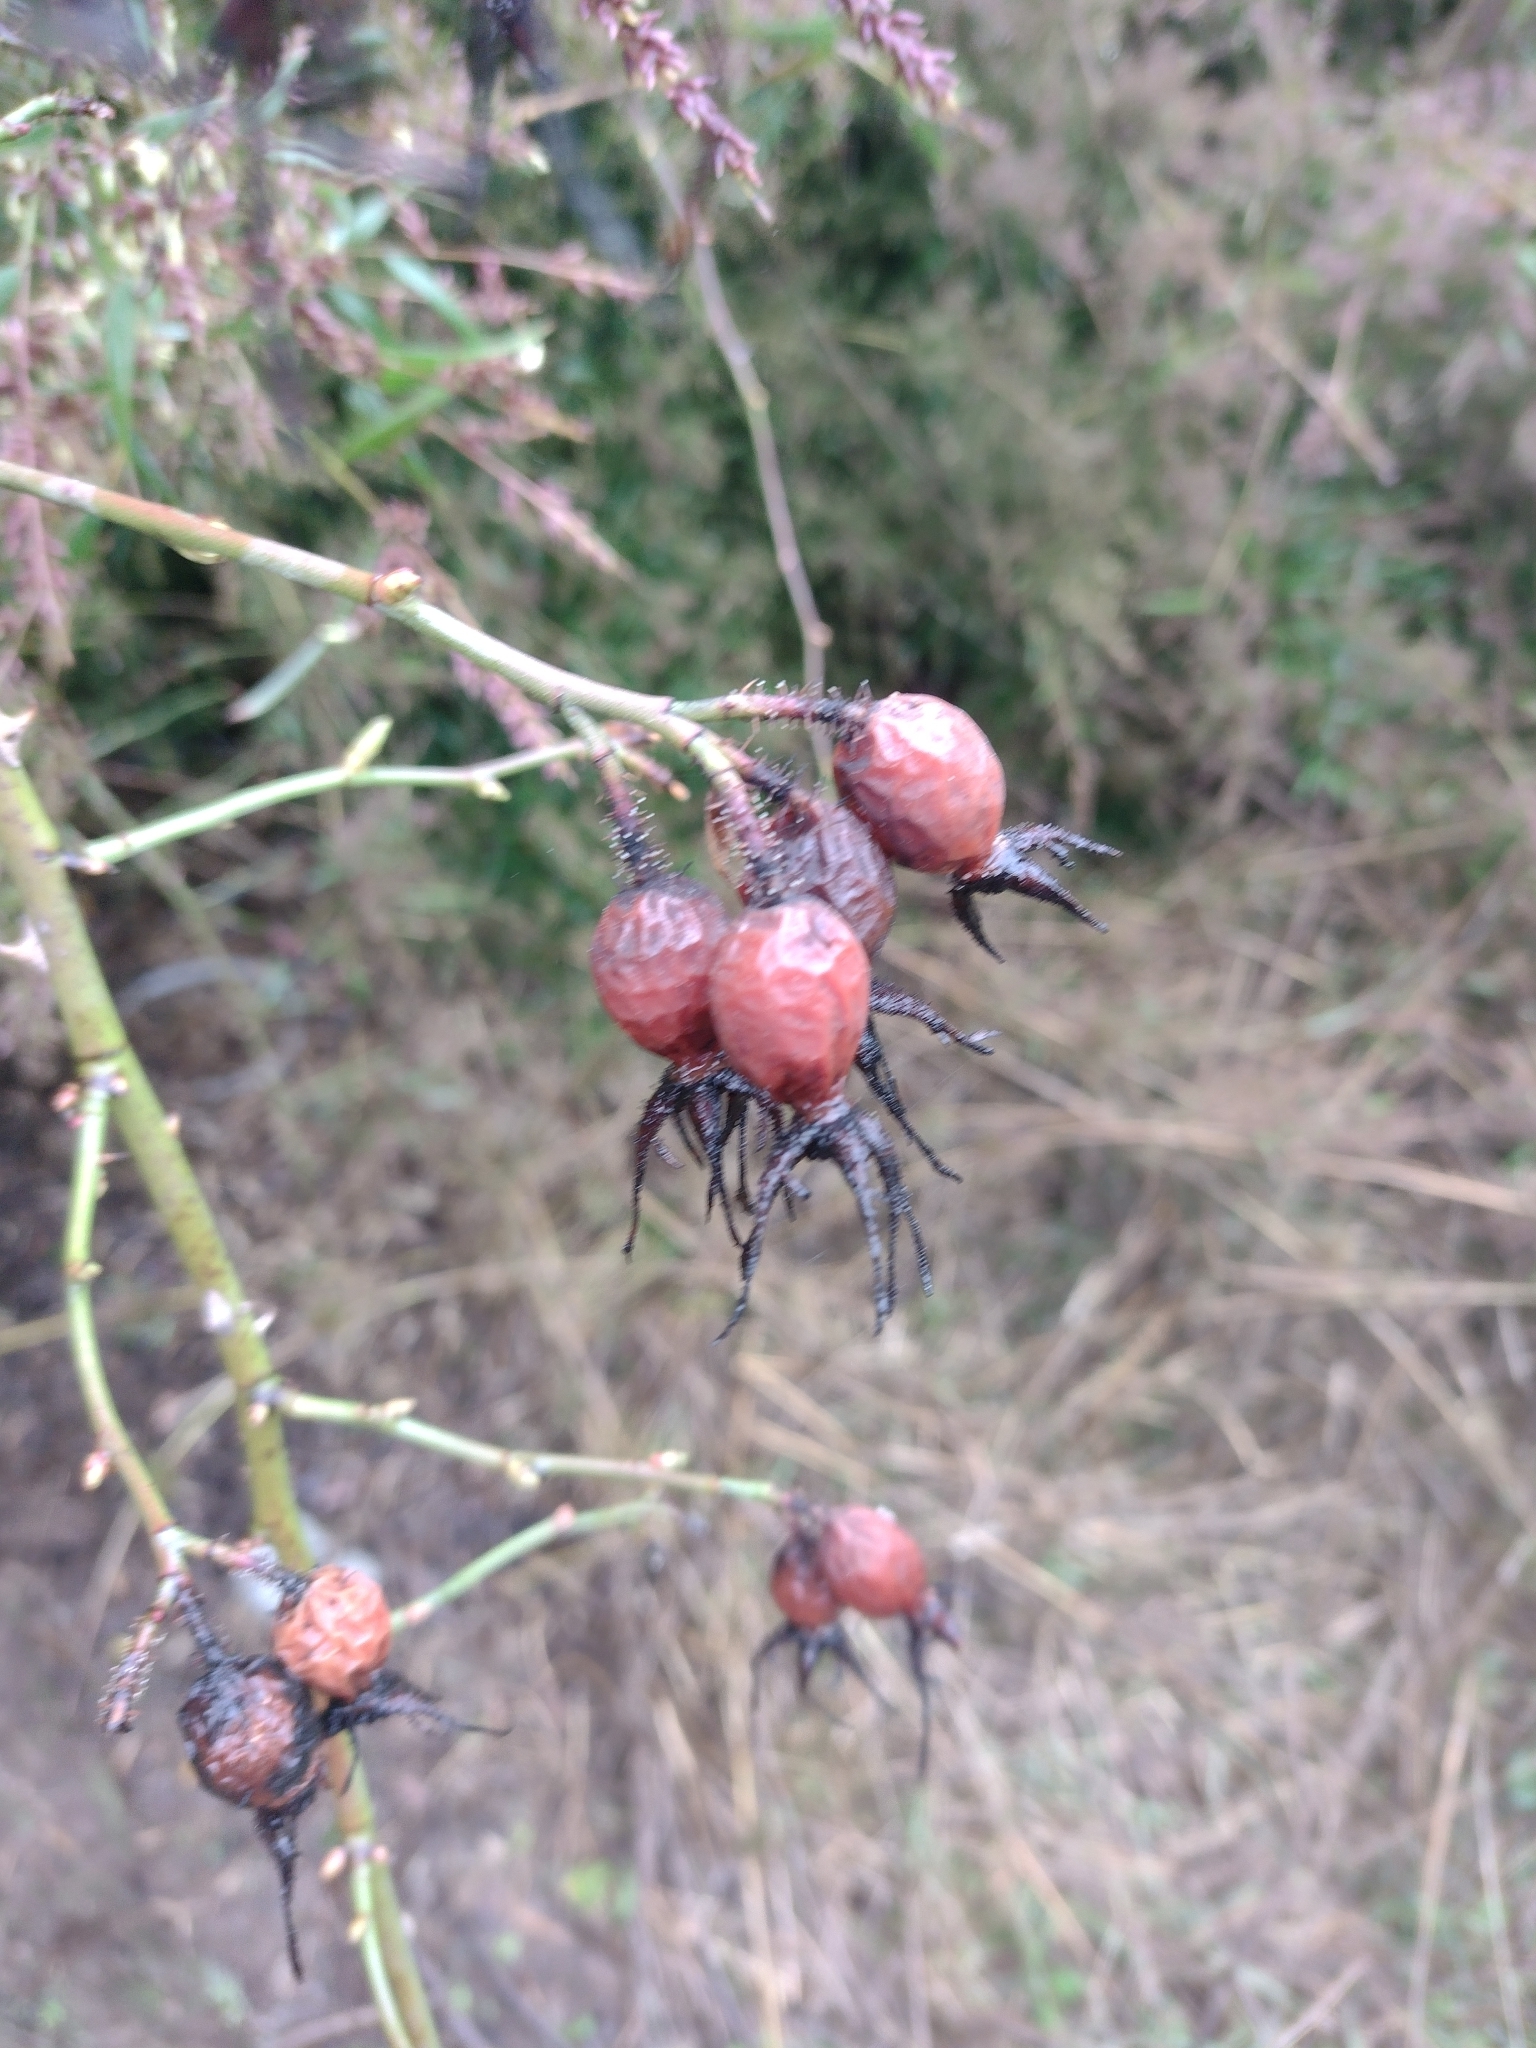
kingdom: Plantae
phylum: Tracheophyta
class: Magnoliopsida
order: Rosales
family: Rosaceae
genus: Rosa
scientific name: Rosa moschata
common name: Musk rose
